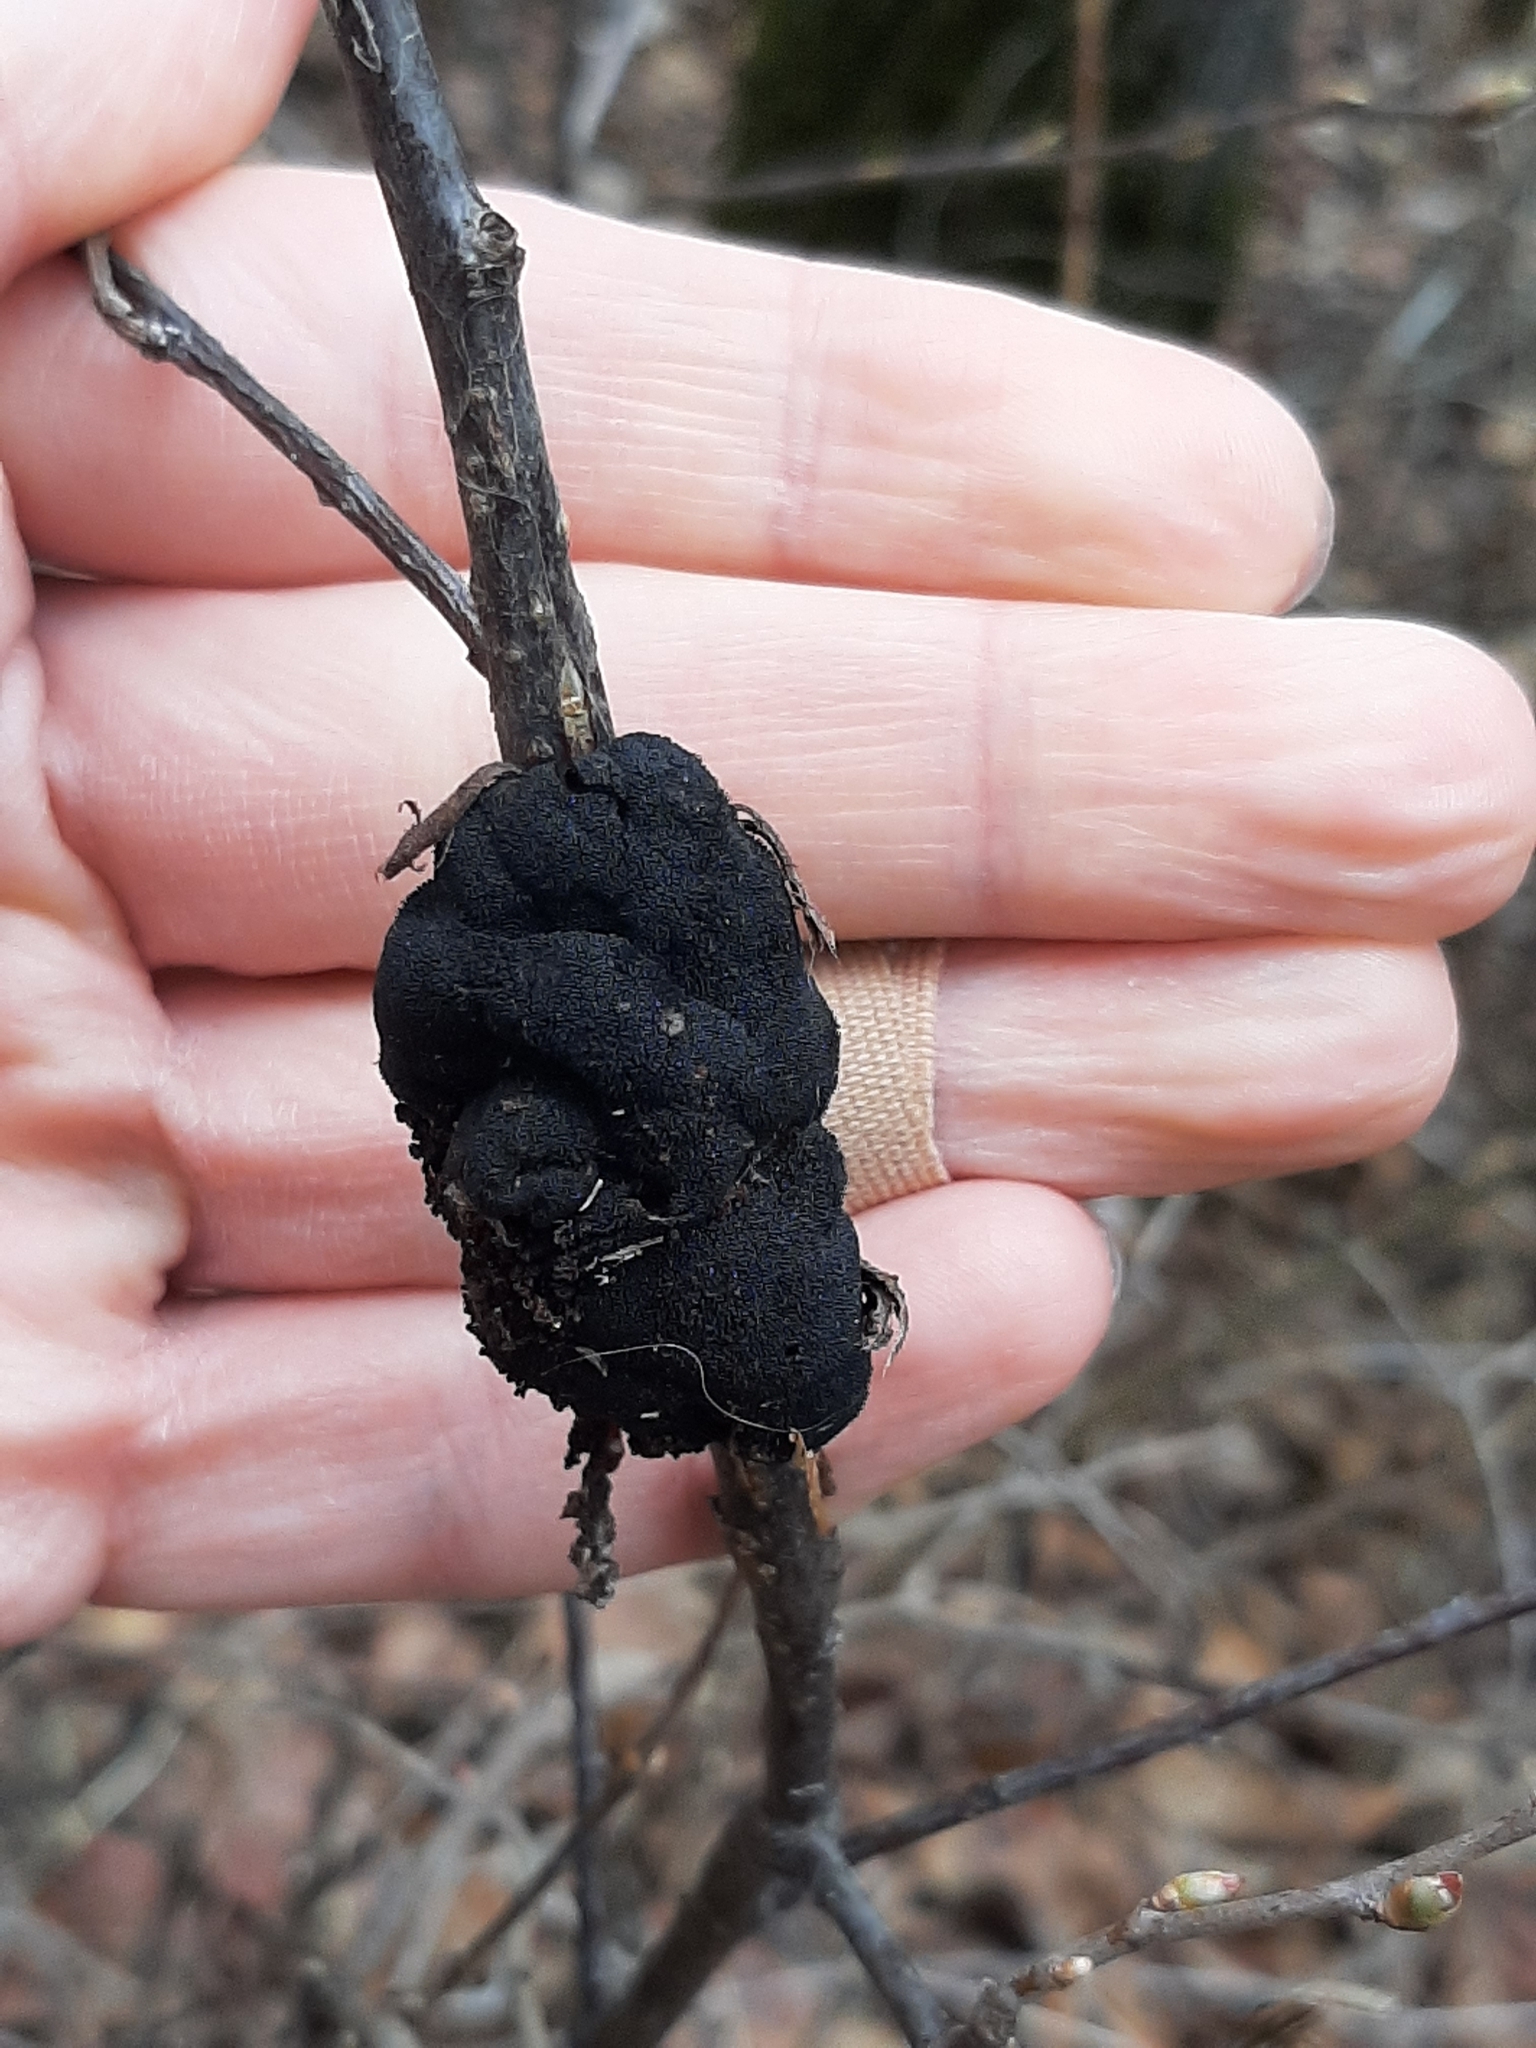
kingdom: Fungi
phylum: Ascomycota
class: Dothideomycetes
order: Venturiales
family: Venturiaceae
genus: Apiosporina
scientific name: Apiosporina morbosa
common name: Black knot
